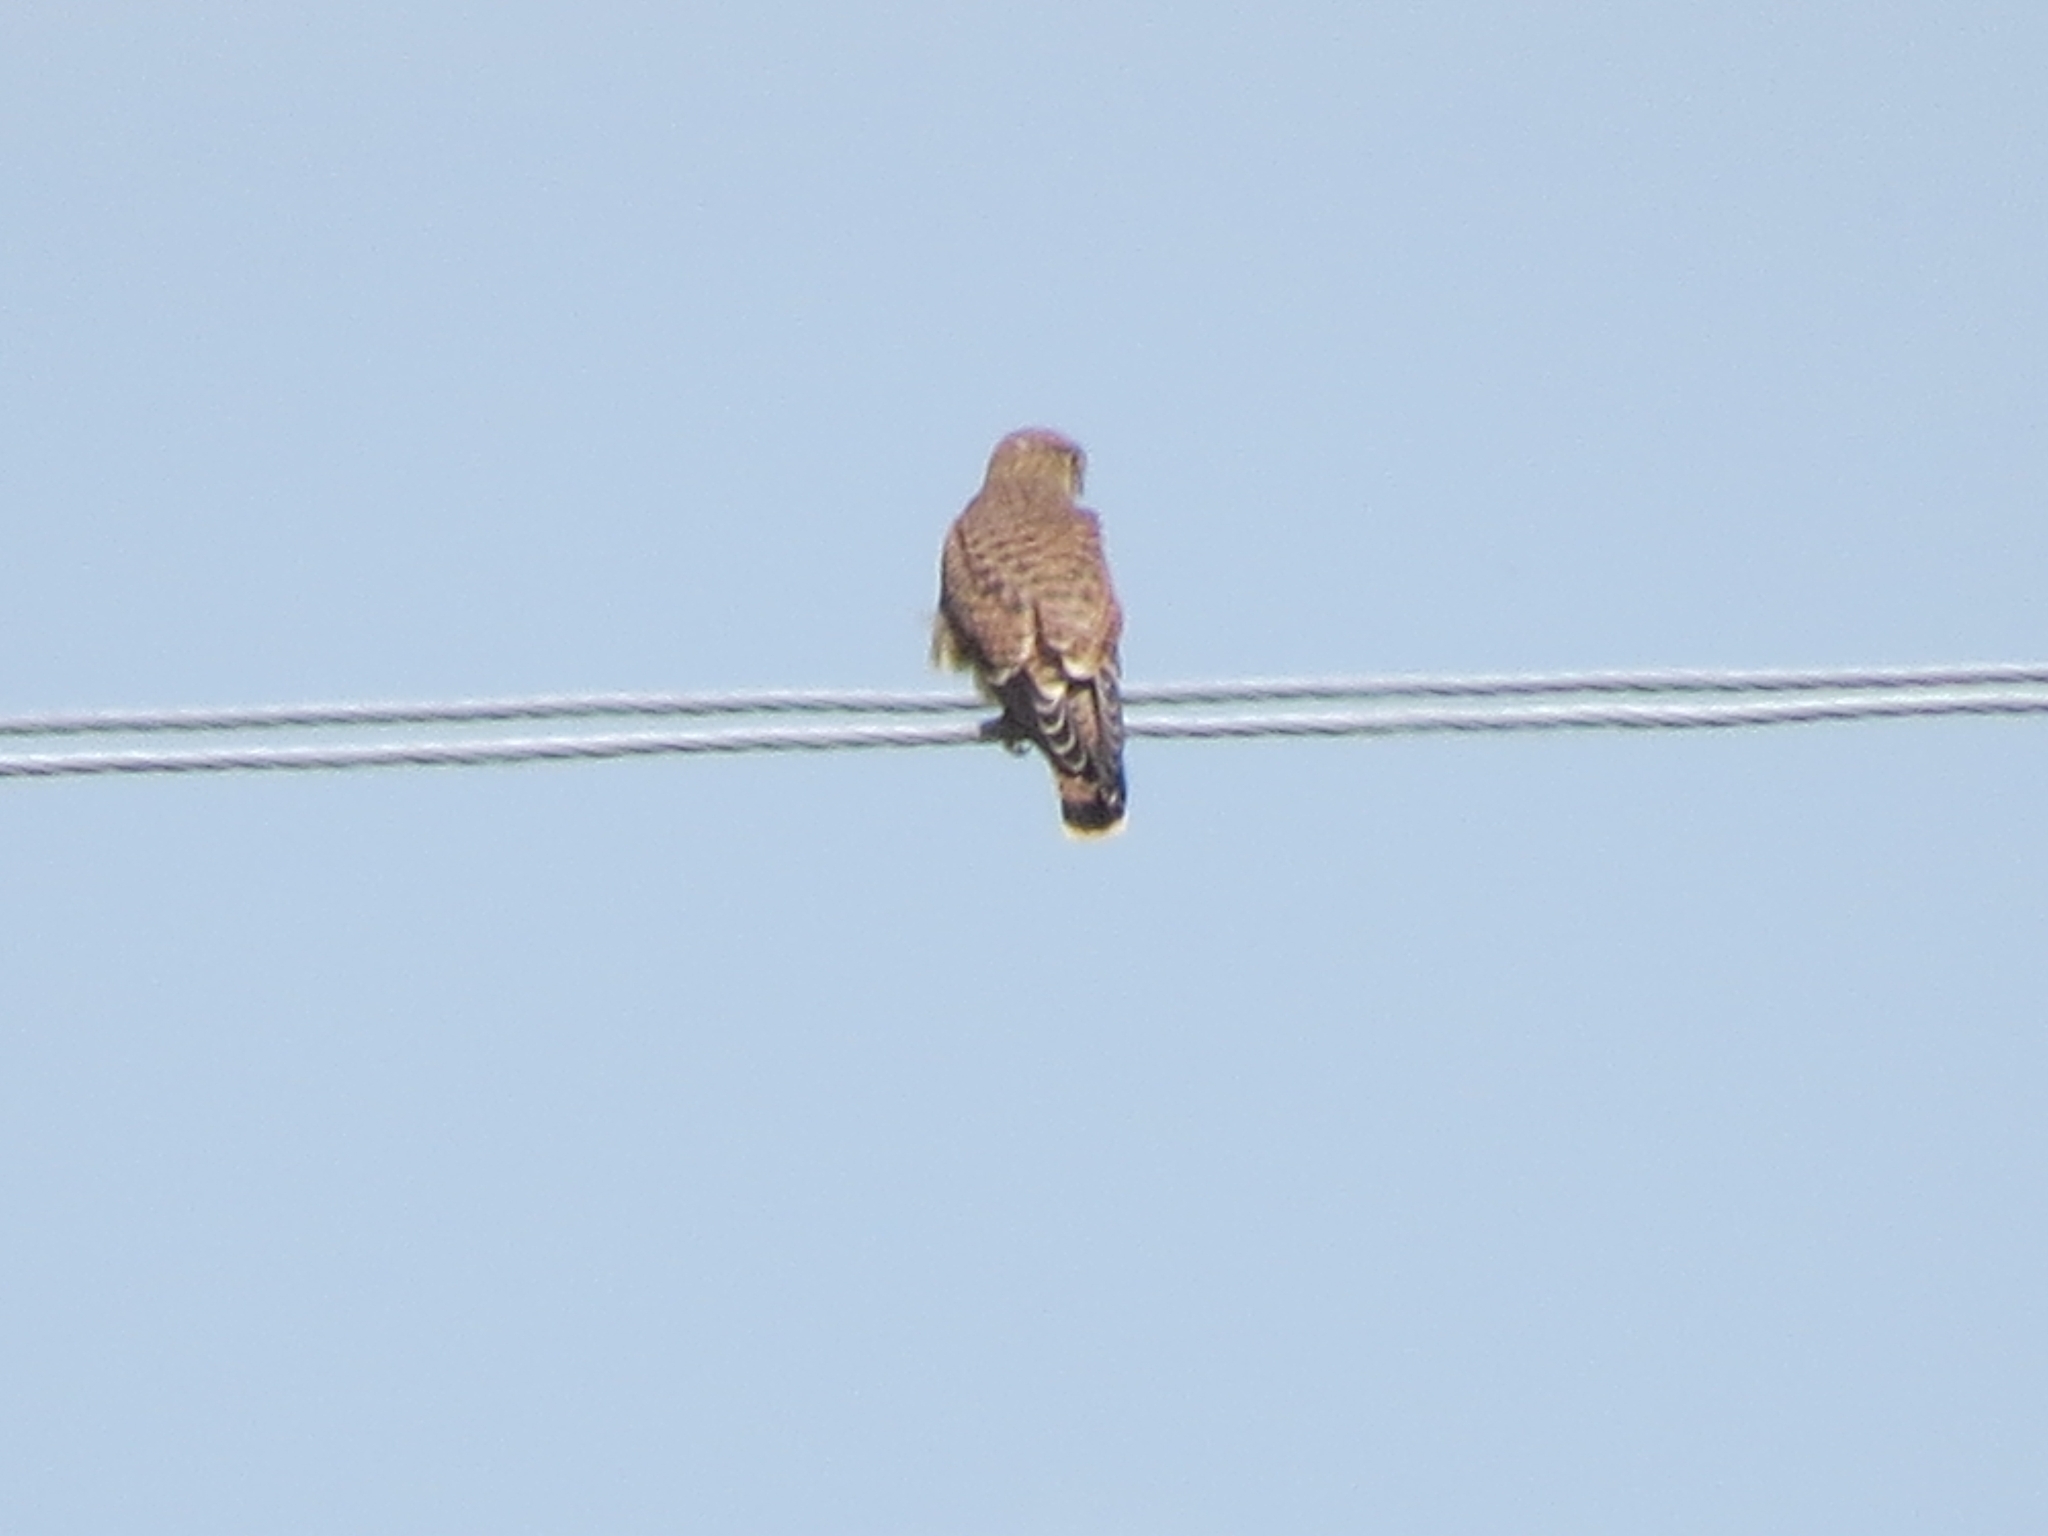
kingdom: Animalia
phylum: Chordata
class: Aves
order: Falconiformes
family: Falconidae
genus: Falco
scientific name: Falco tinnunculus
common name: Common kestrel
